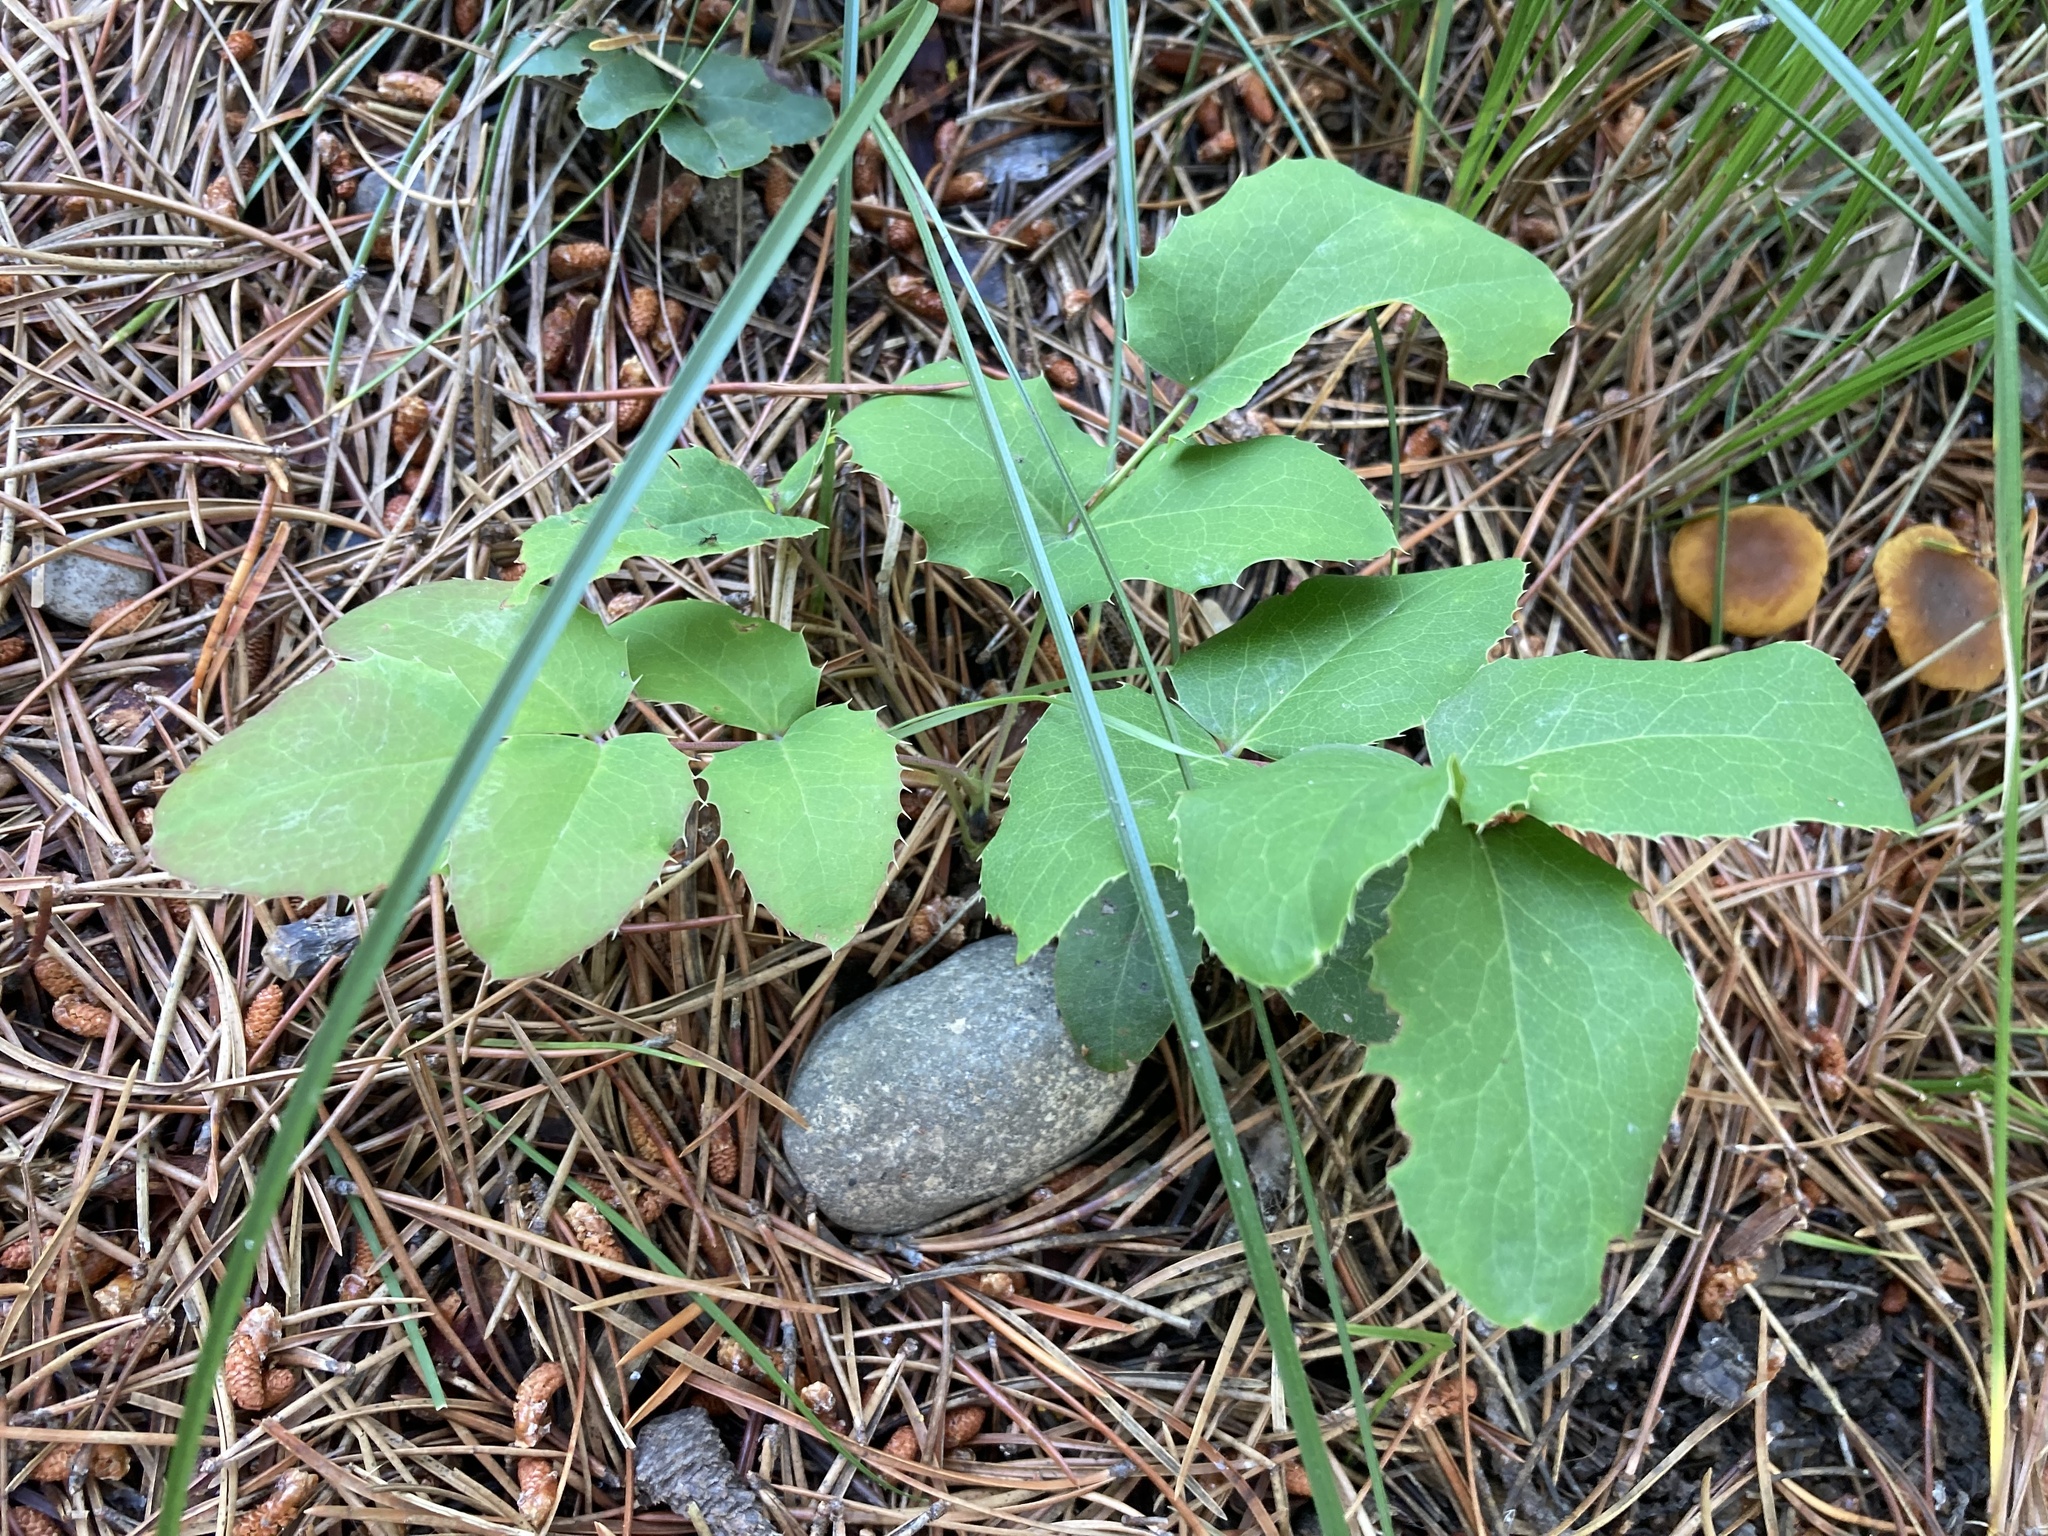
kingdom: Plantae
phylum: Tracheophyta
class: Magnoliopsida
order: Ranunculales
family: Berberidaceae
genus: Mahonia
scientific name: Mahonia repens
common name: Creeping oregon-grape
